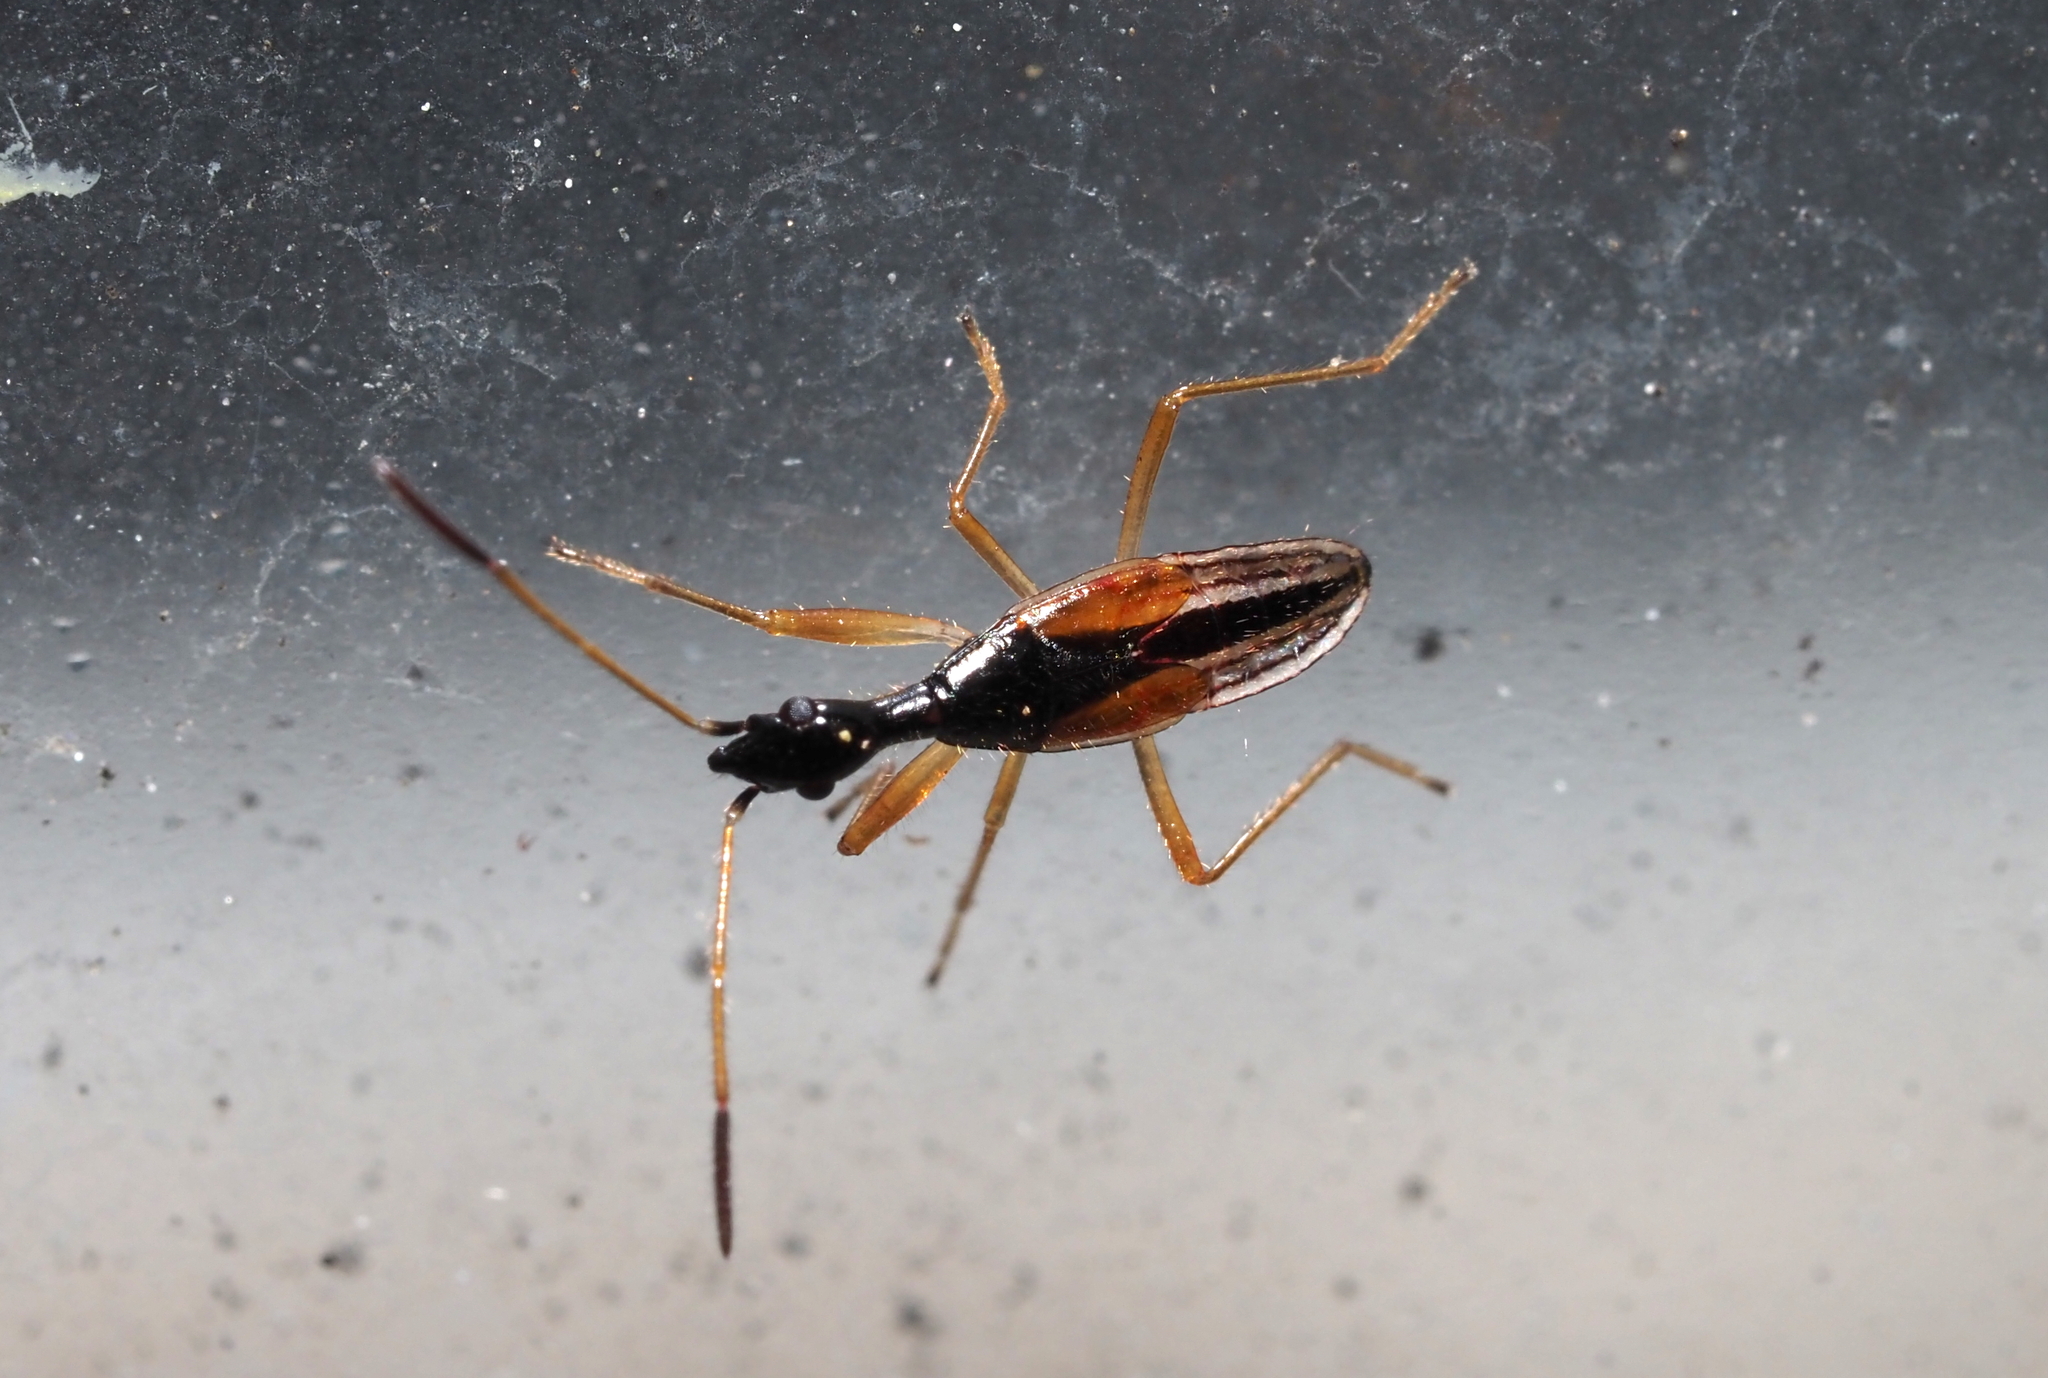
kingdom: Animalia
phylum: Arthropoda
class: Insecta
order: Hemiptera
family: Rhyparochromidae
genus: Myodocha
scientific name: Myodocha serripes
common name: Long-necked seed bug
